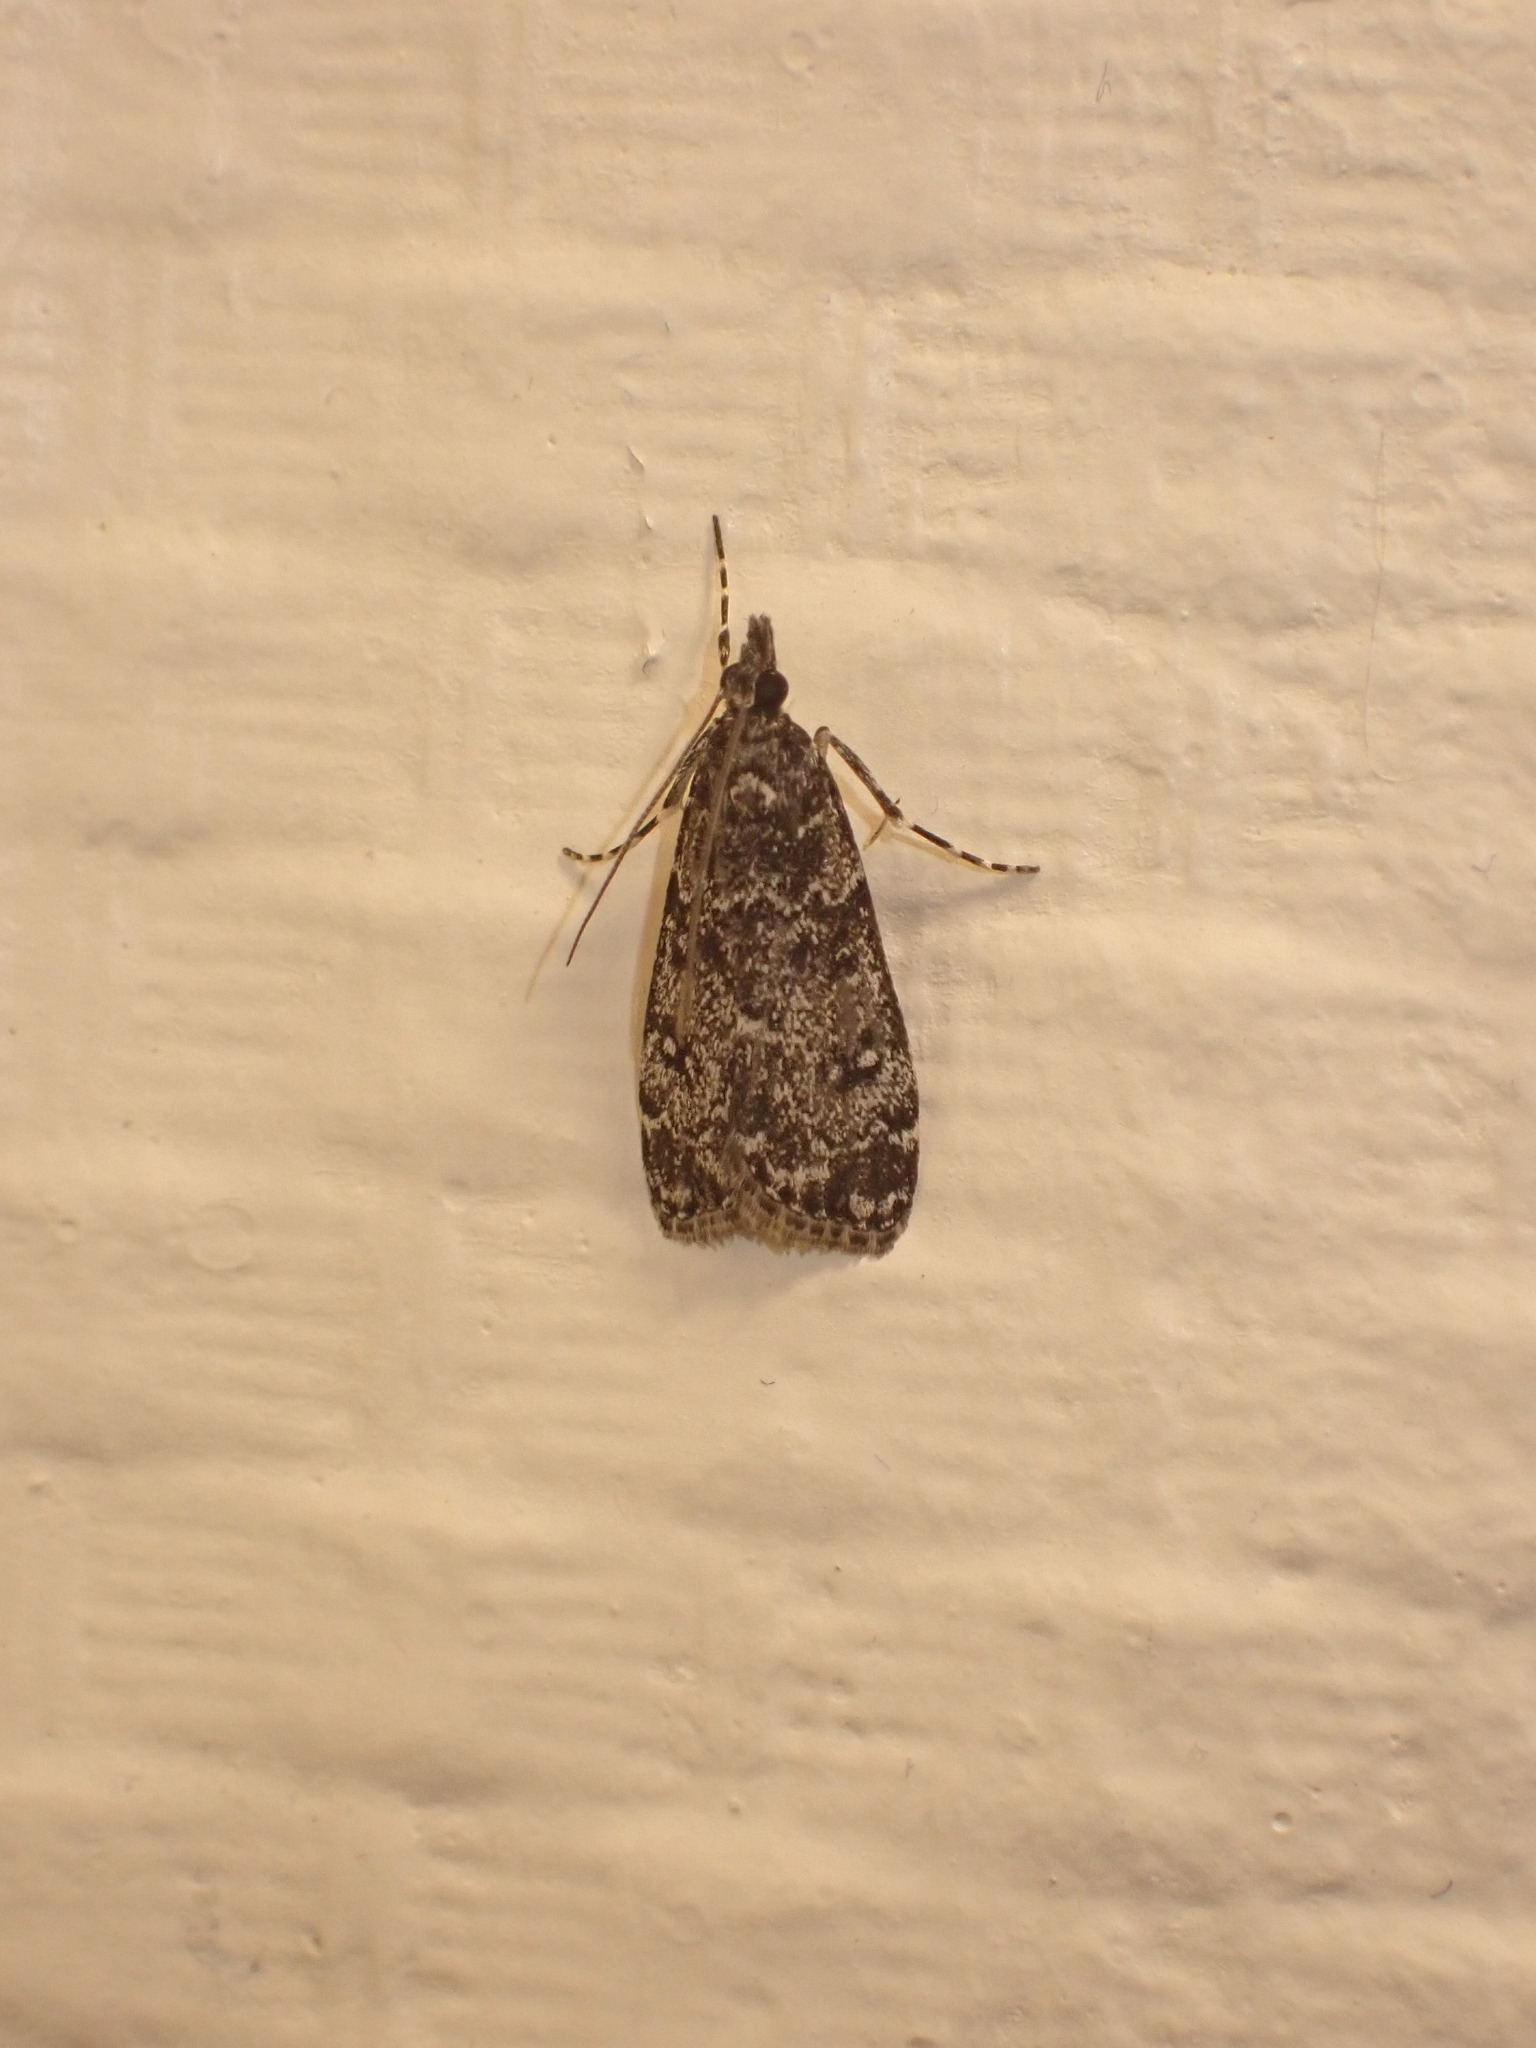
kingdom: Animalia
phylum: Arthropoda
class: Insecta
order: Lepidoptera
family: Crambidae
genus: Eudonia
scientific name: Eudonia philerga
